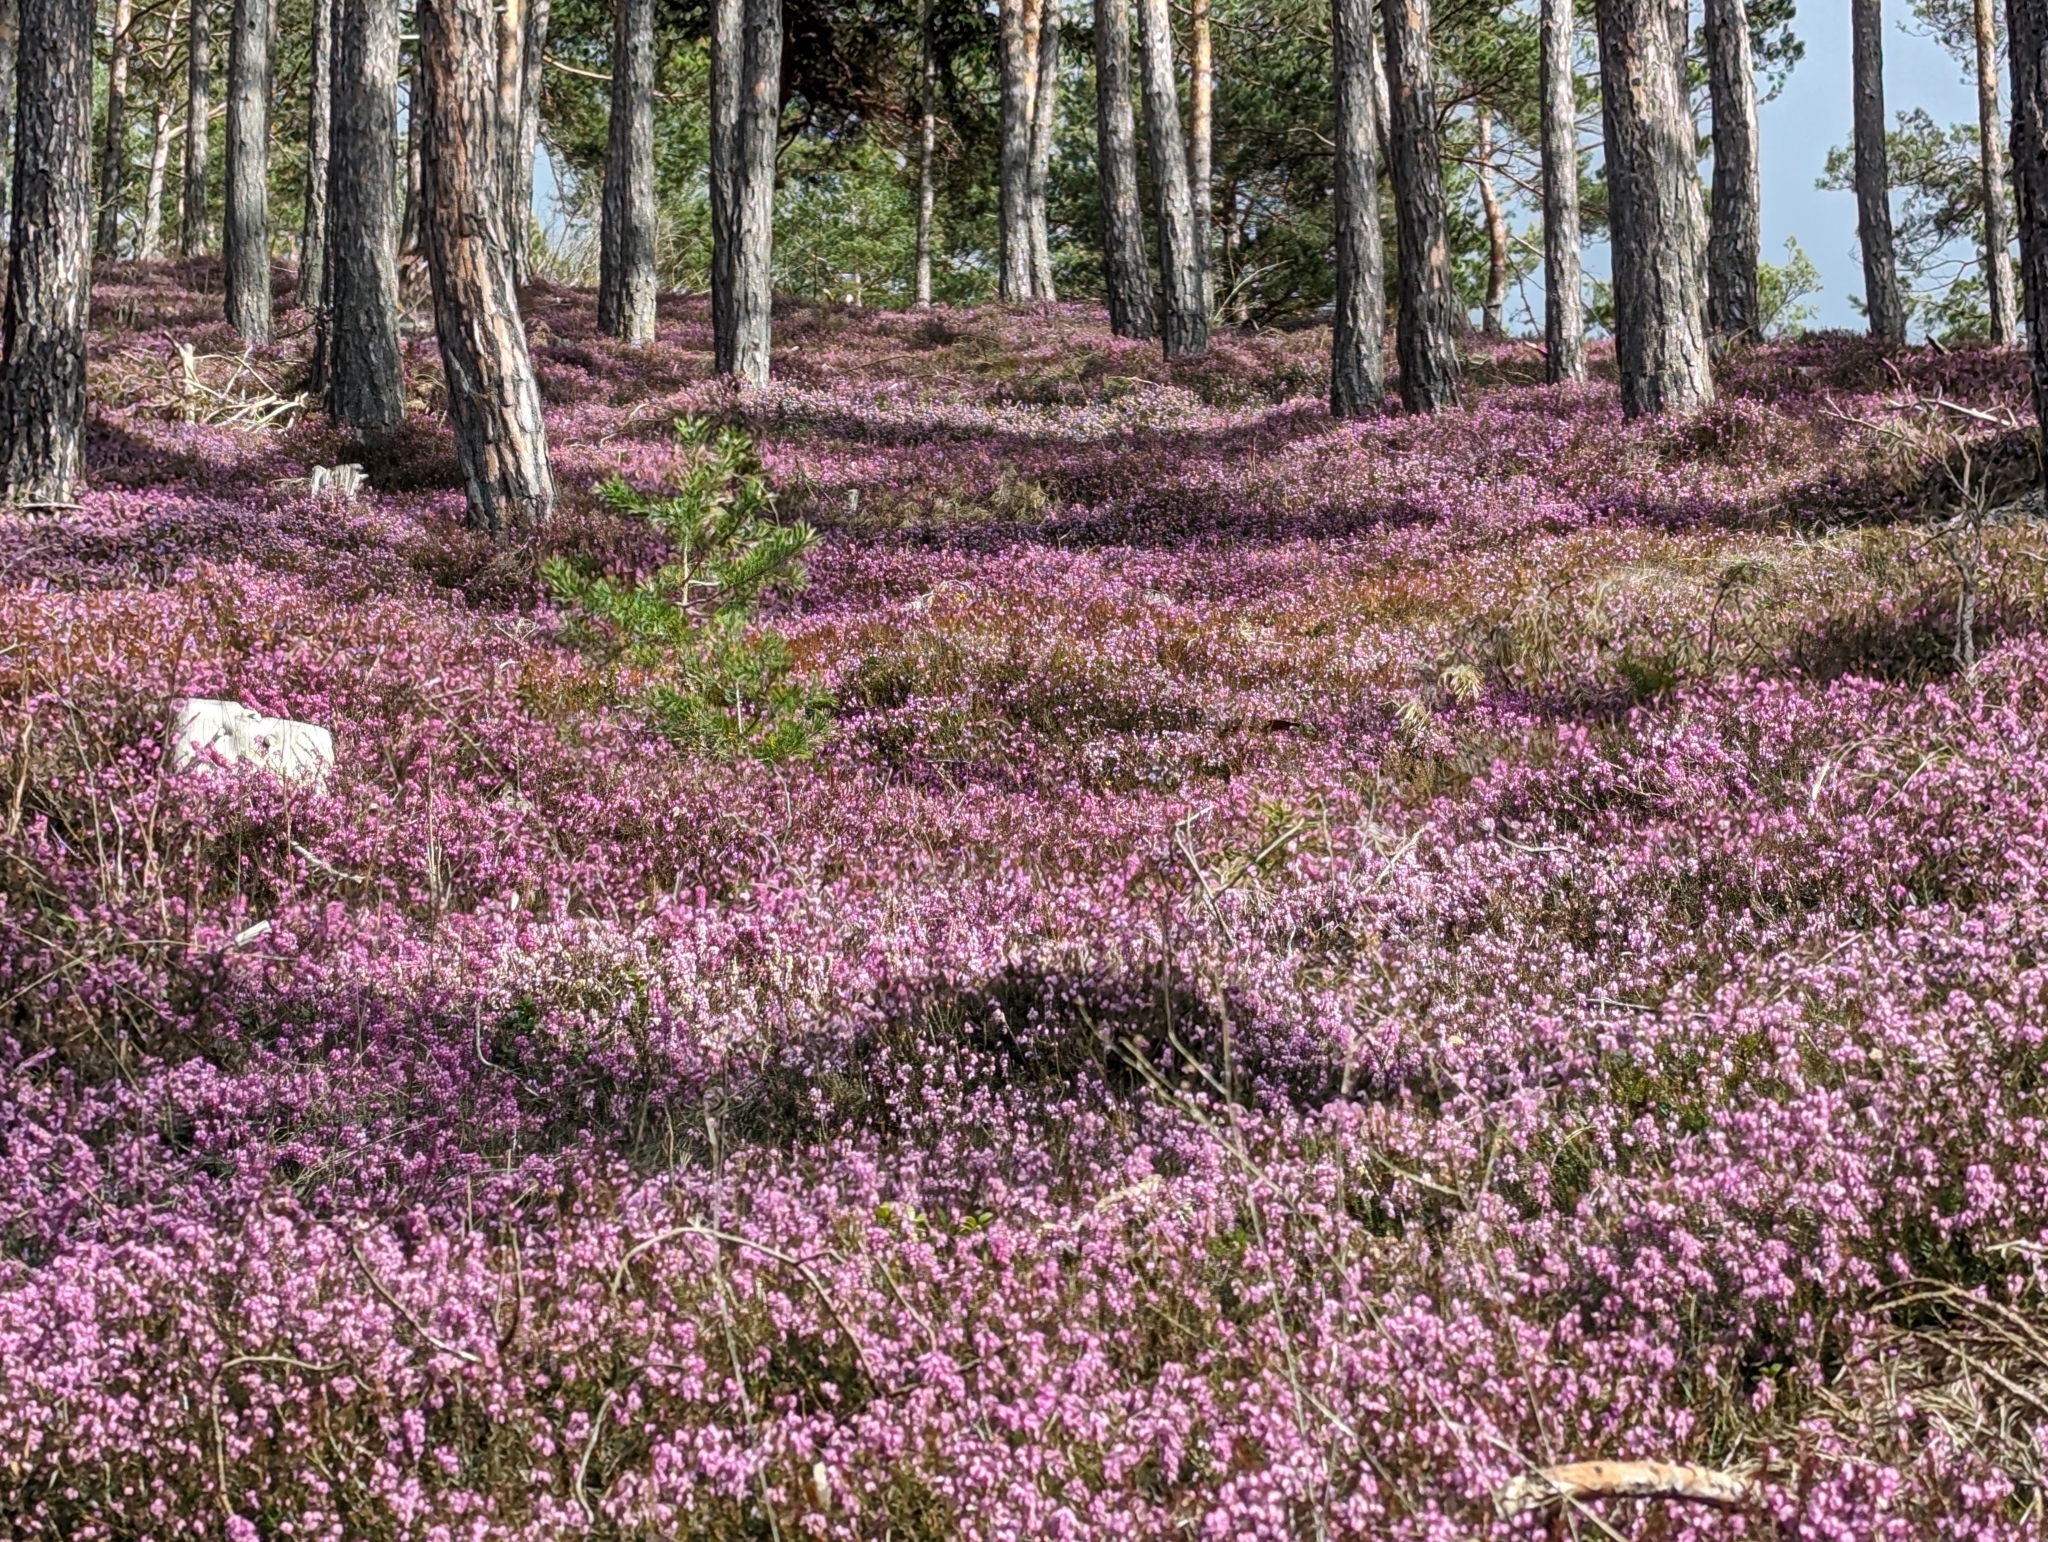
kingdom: Plantae
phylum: Tracheophyta
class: Magnoliopsida
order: Ericales
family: Ericaceae
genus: Erica
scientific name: Erica carnea
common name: Winter heath
